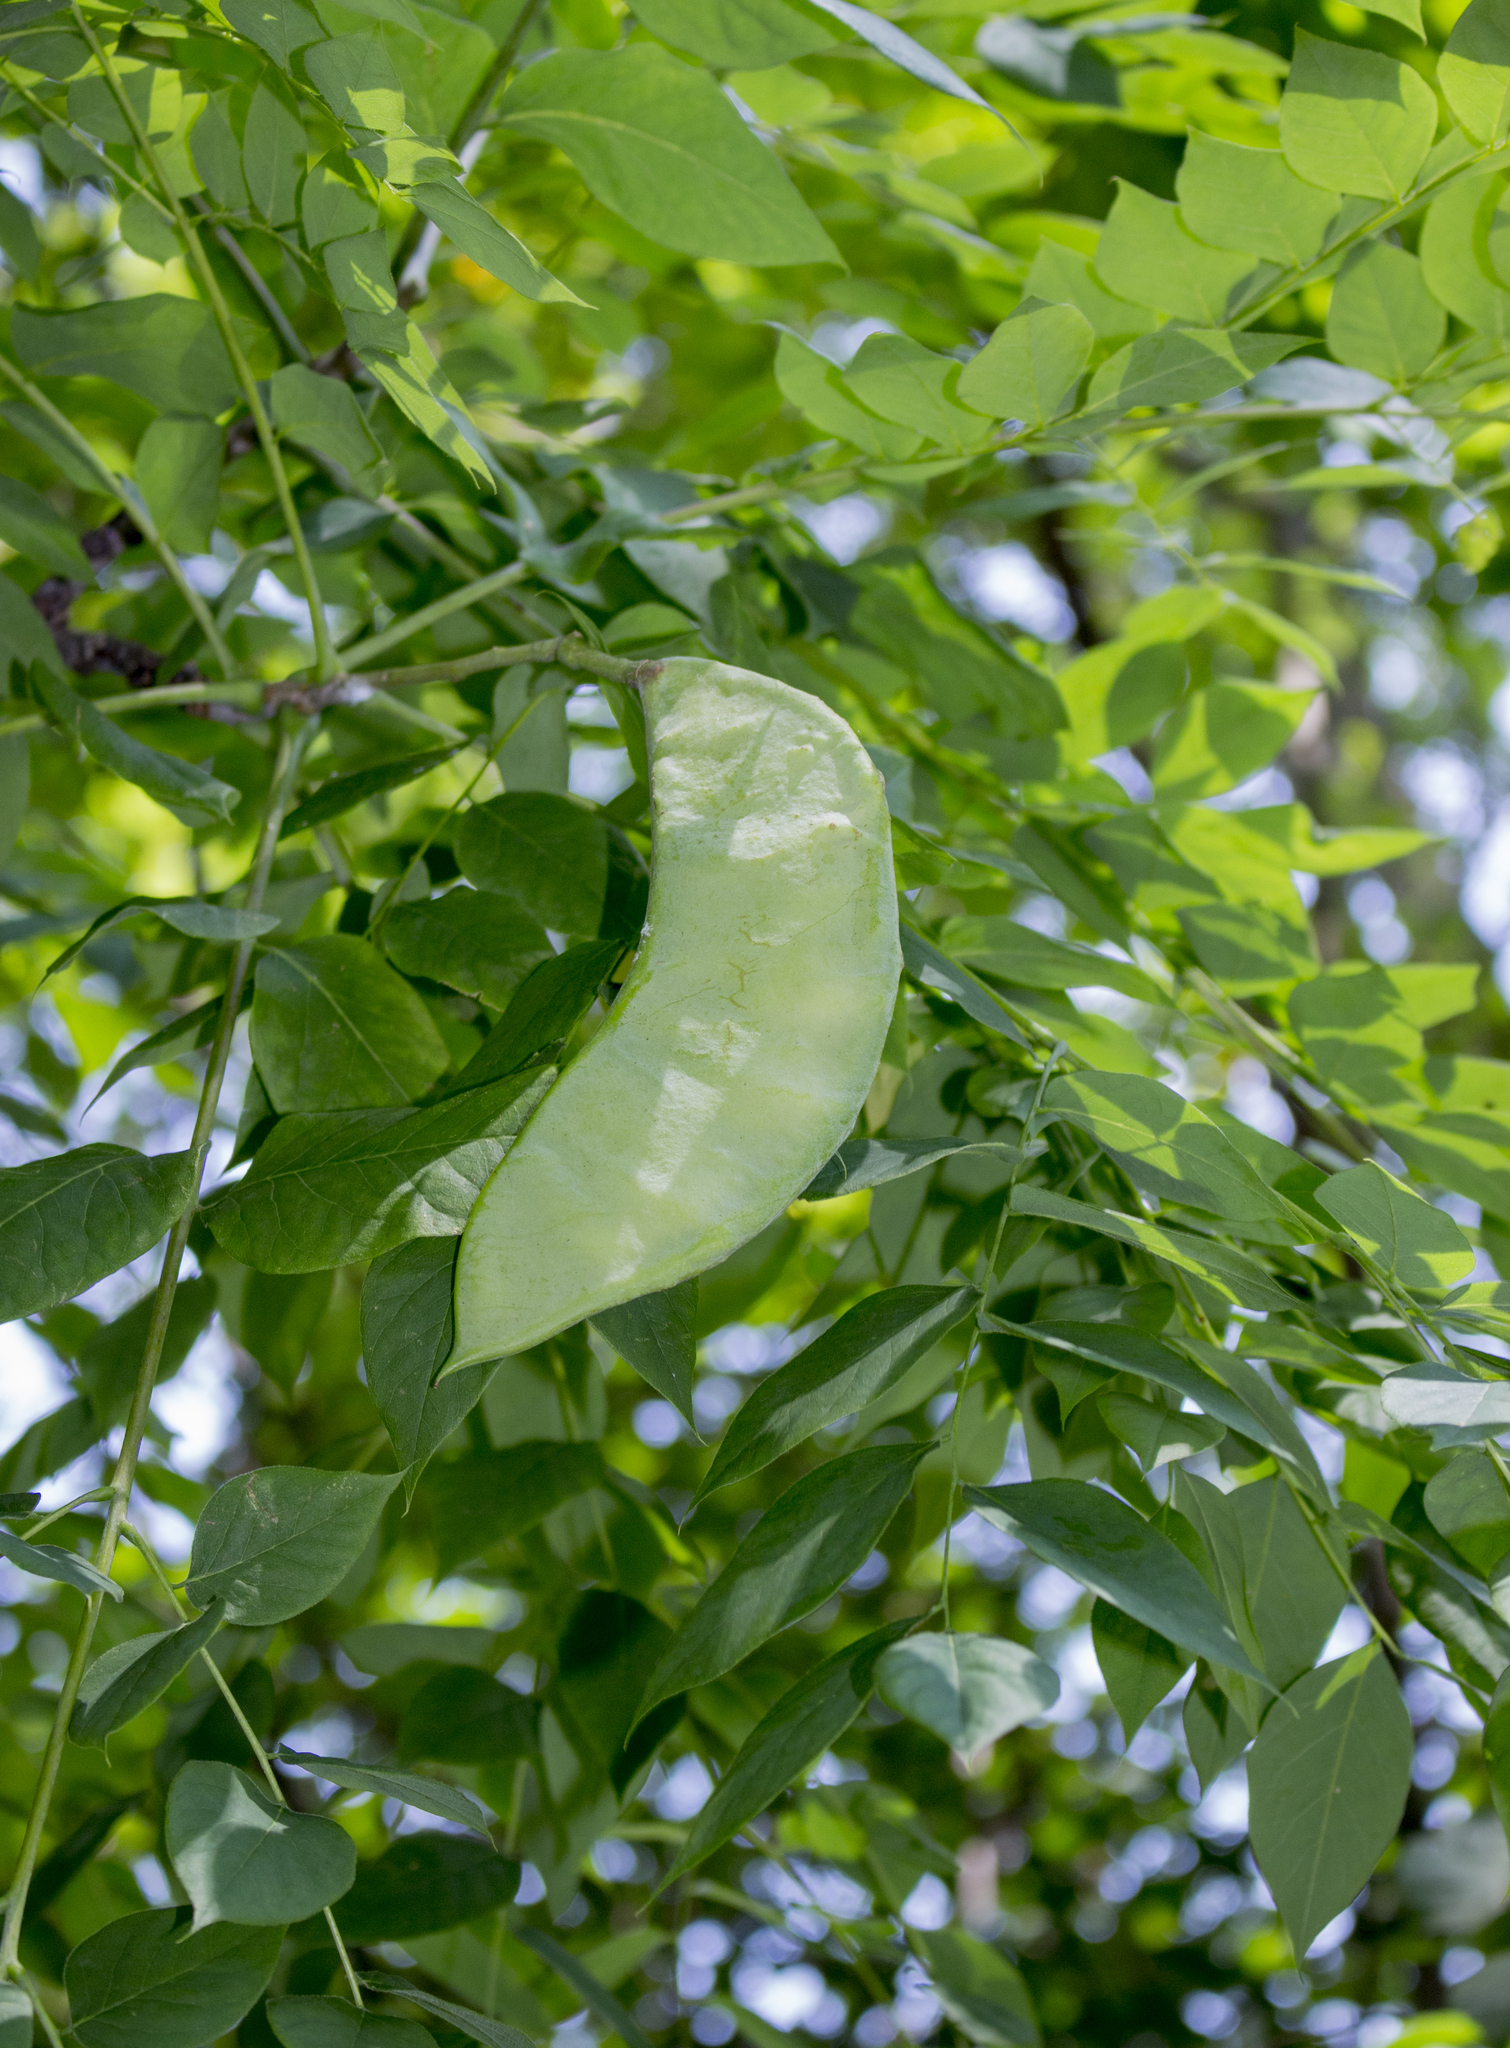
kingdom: Plantae
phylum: Tracheophyta
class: Magnoliopsida
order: Fabales
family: Fabaceae
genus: Gymnocladus
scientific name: Gymnocladus dioicus
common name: Kentucky coffee-tree
